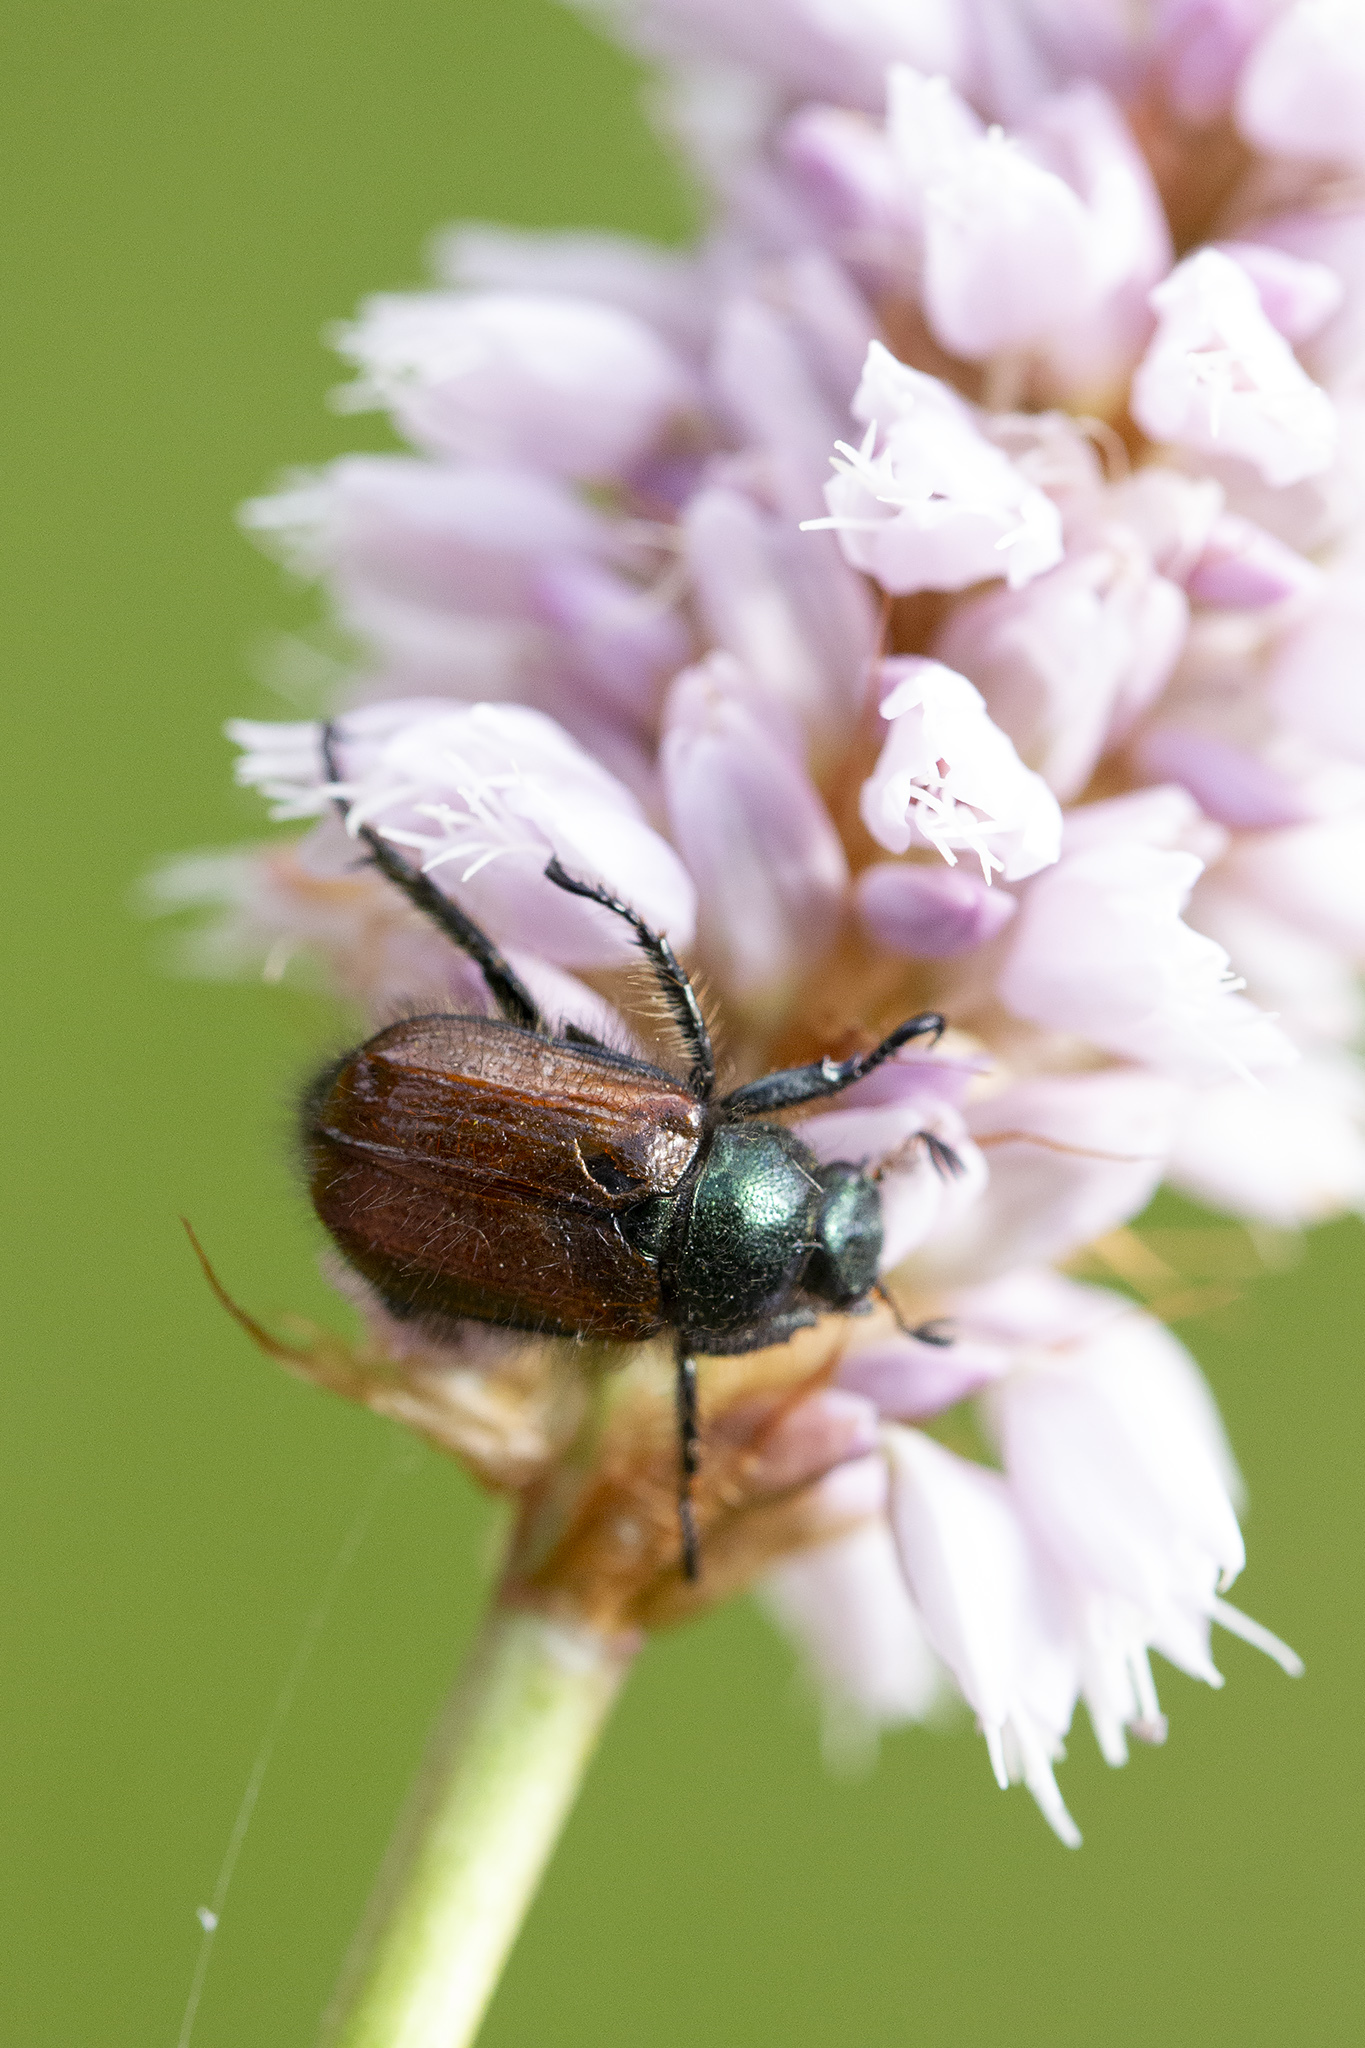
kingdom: Animalia
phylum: Arthropoda
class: Insecta
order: Coleoptera
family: Scarabaeidae
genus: Phyllopertha
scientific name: Phyllopertha horticola
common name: Garden chafer
